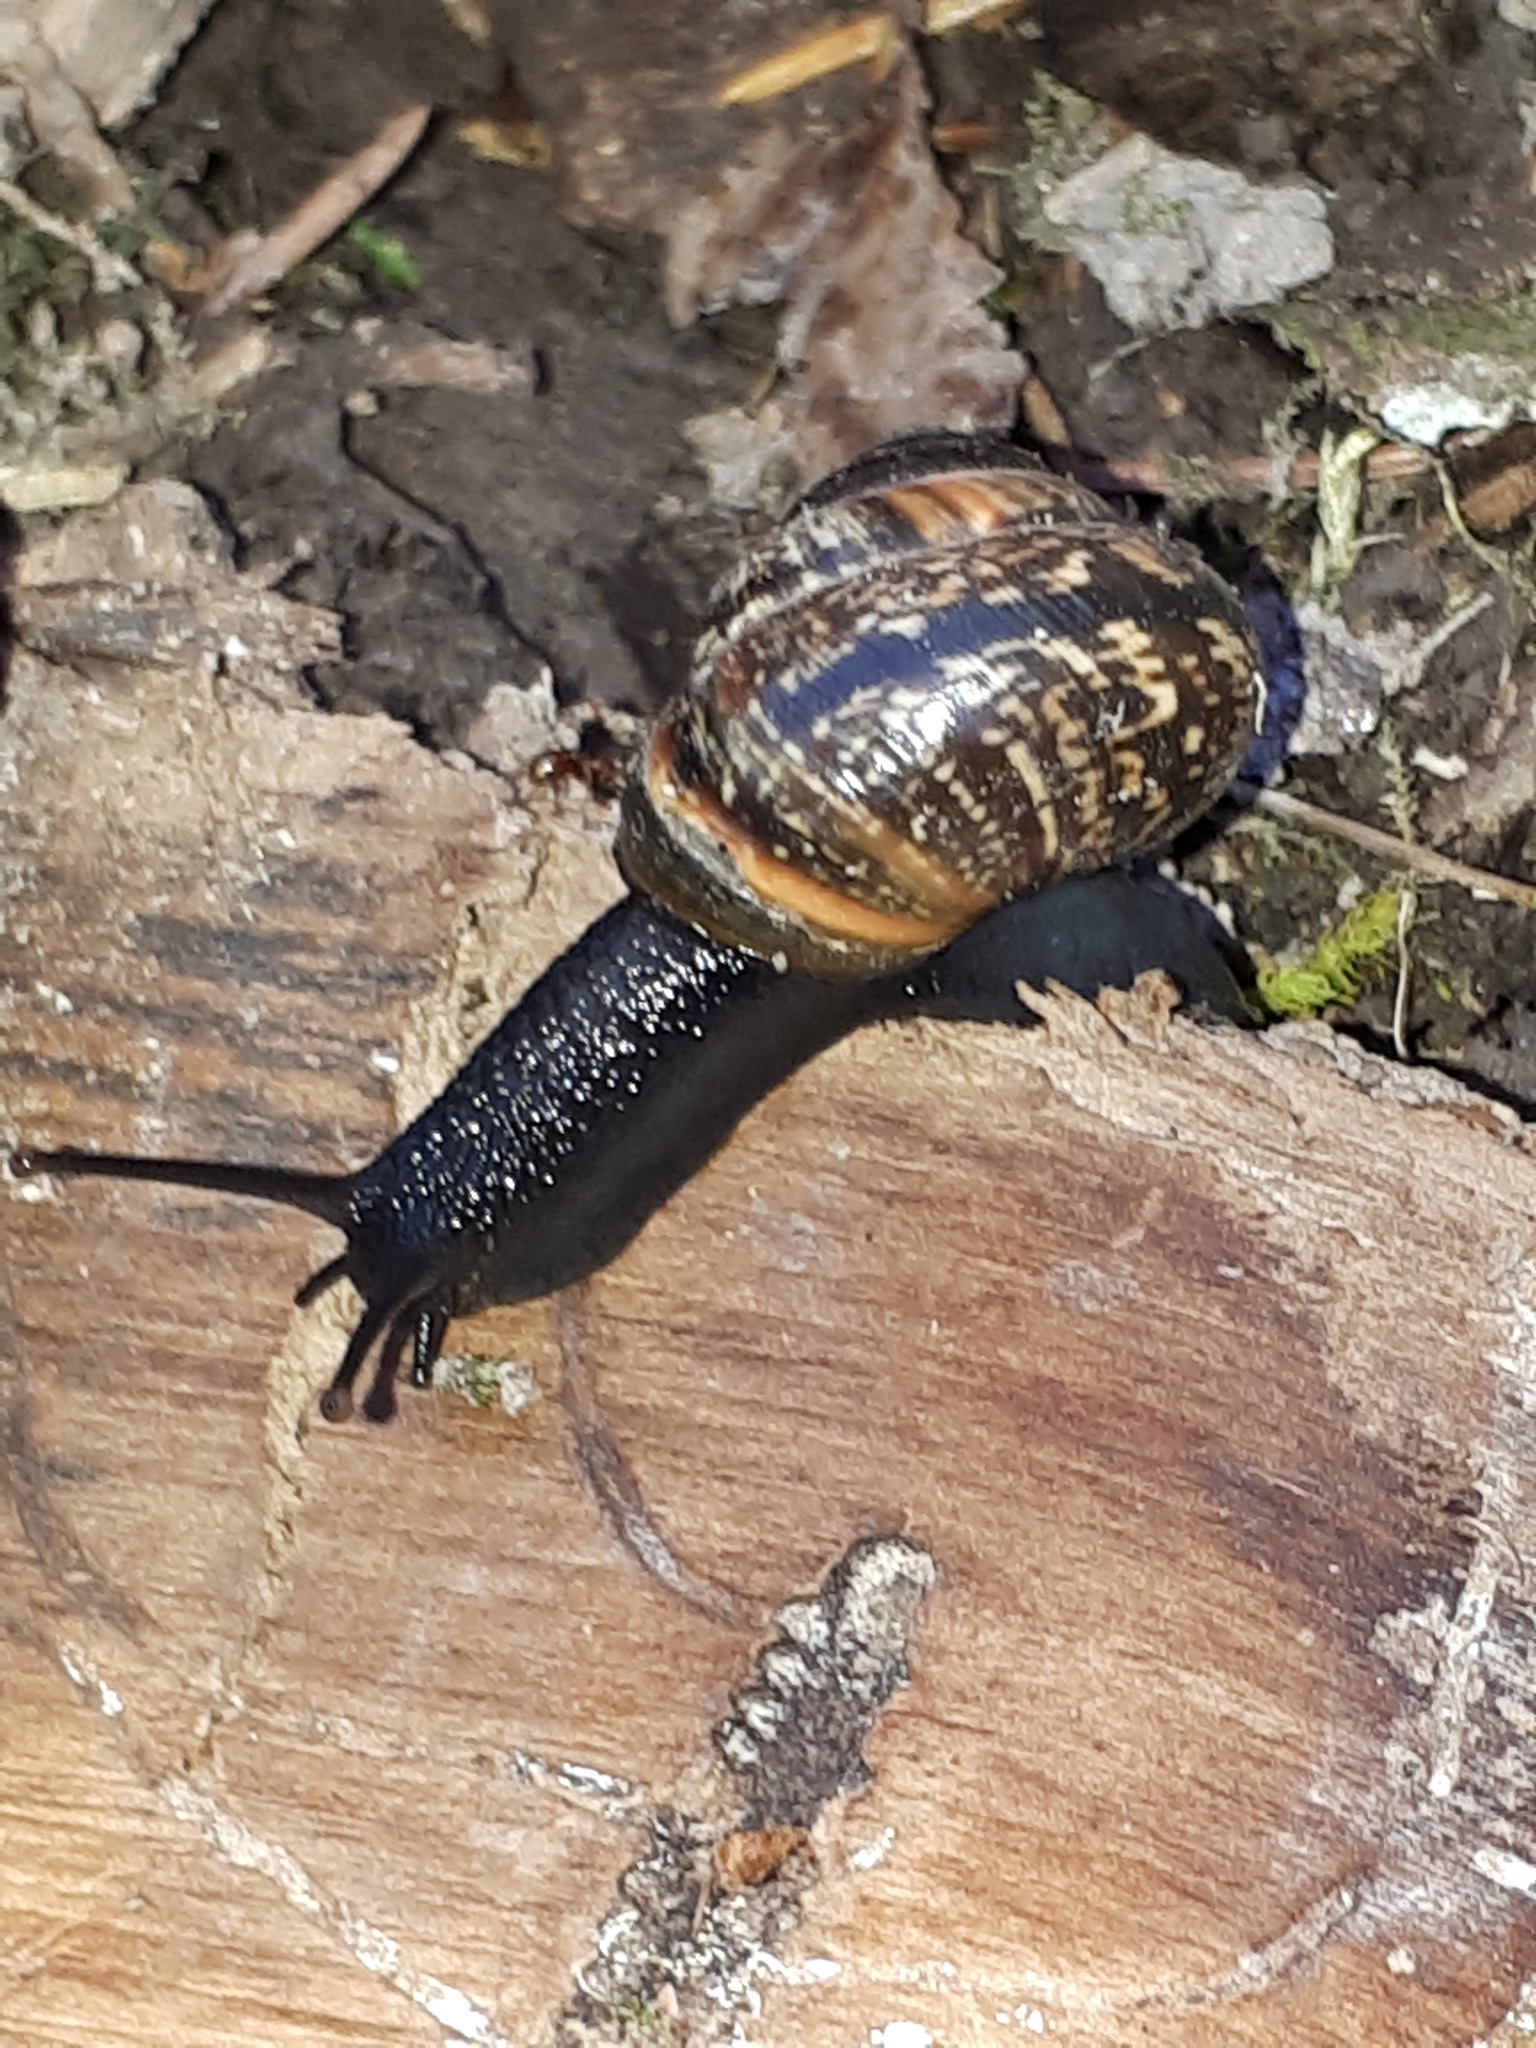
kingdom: Animalia
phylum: Mollusca
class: Gastropoda
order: Stylommatophora
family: Helicidae
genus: Arianta
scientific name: Arianta arbustorum
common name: Copse snail
